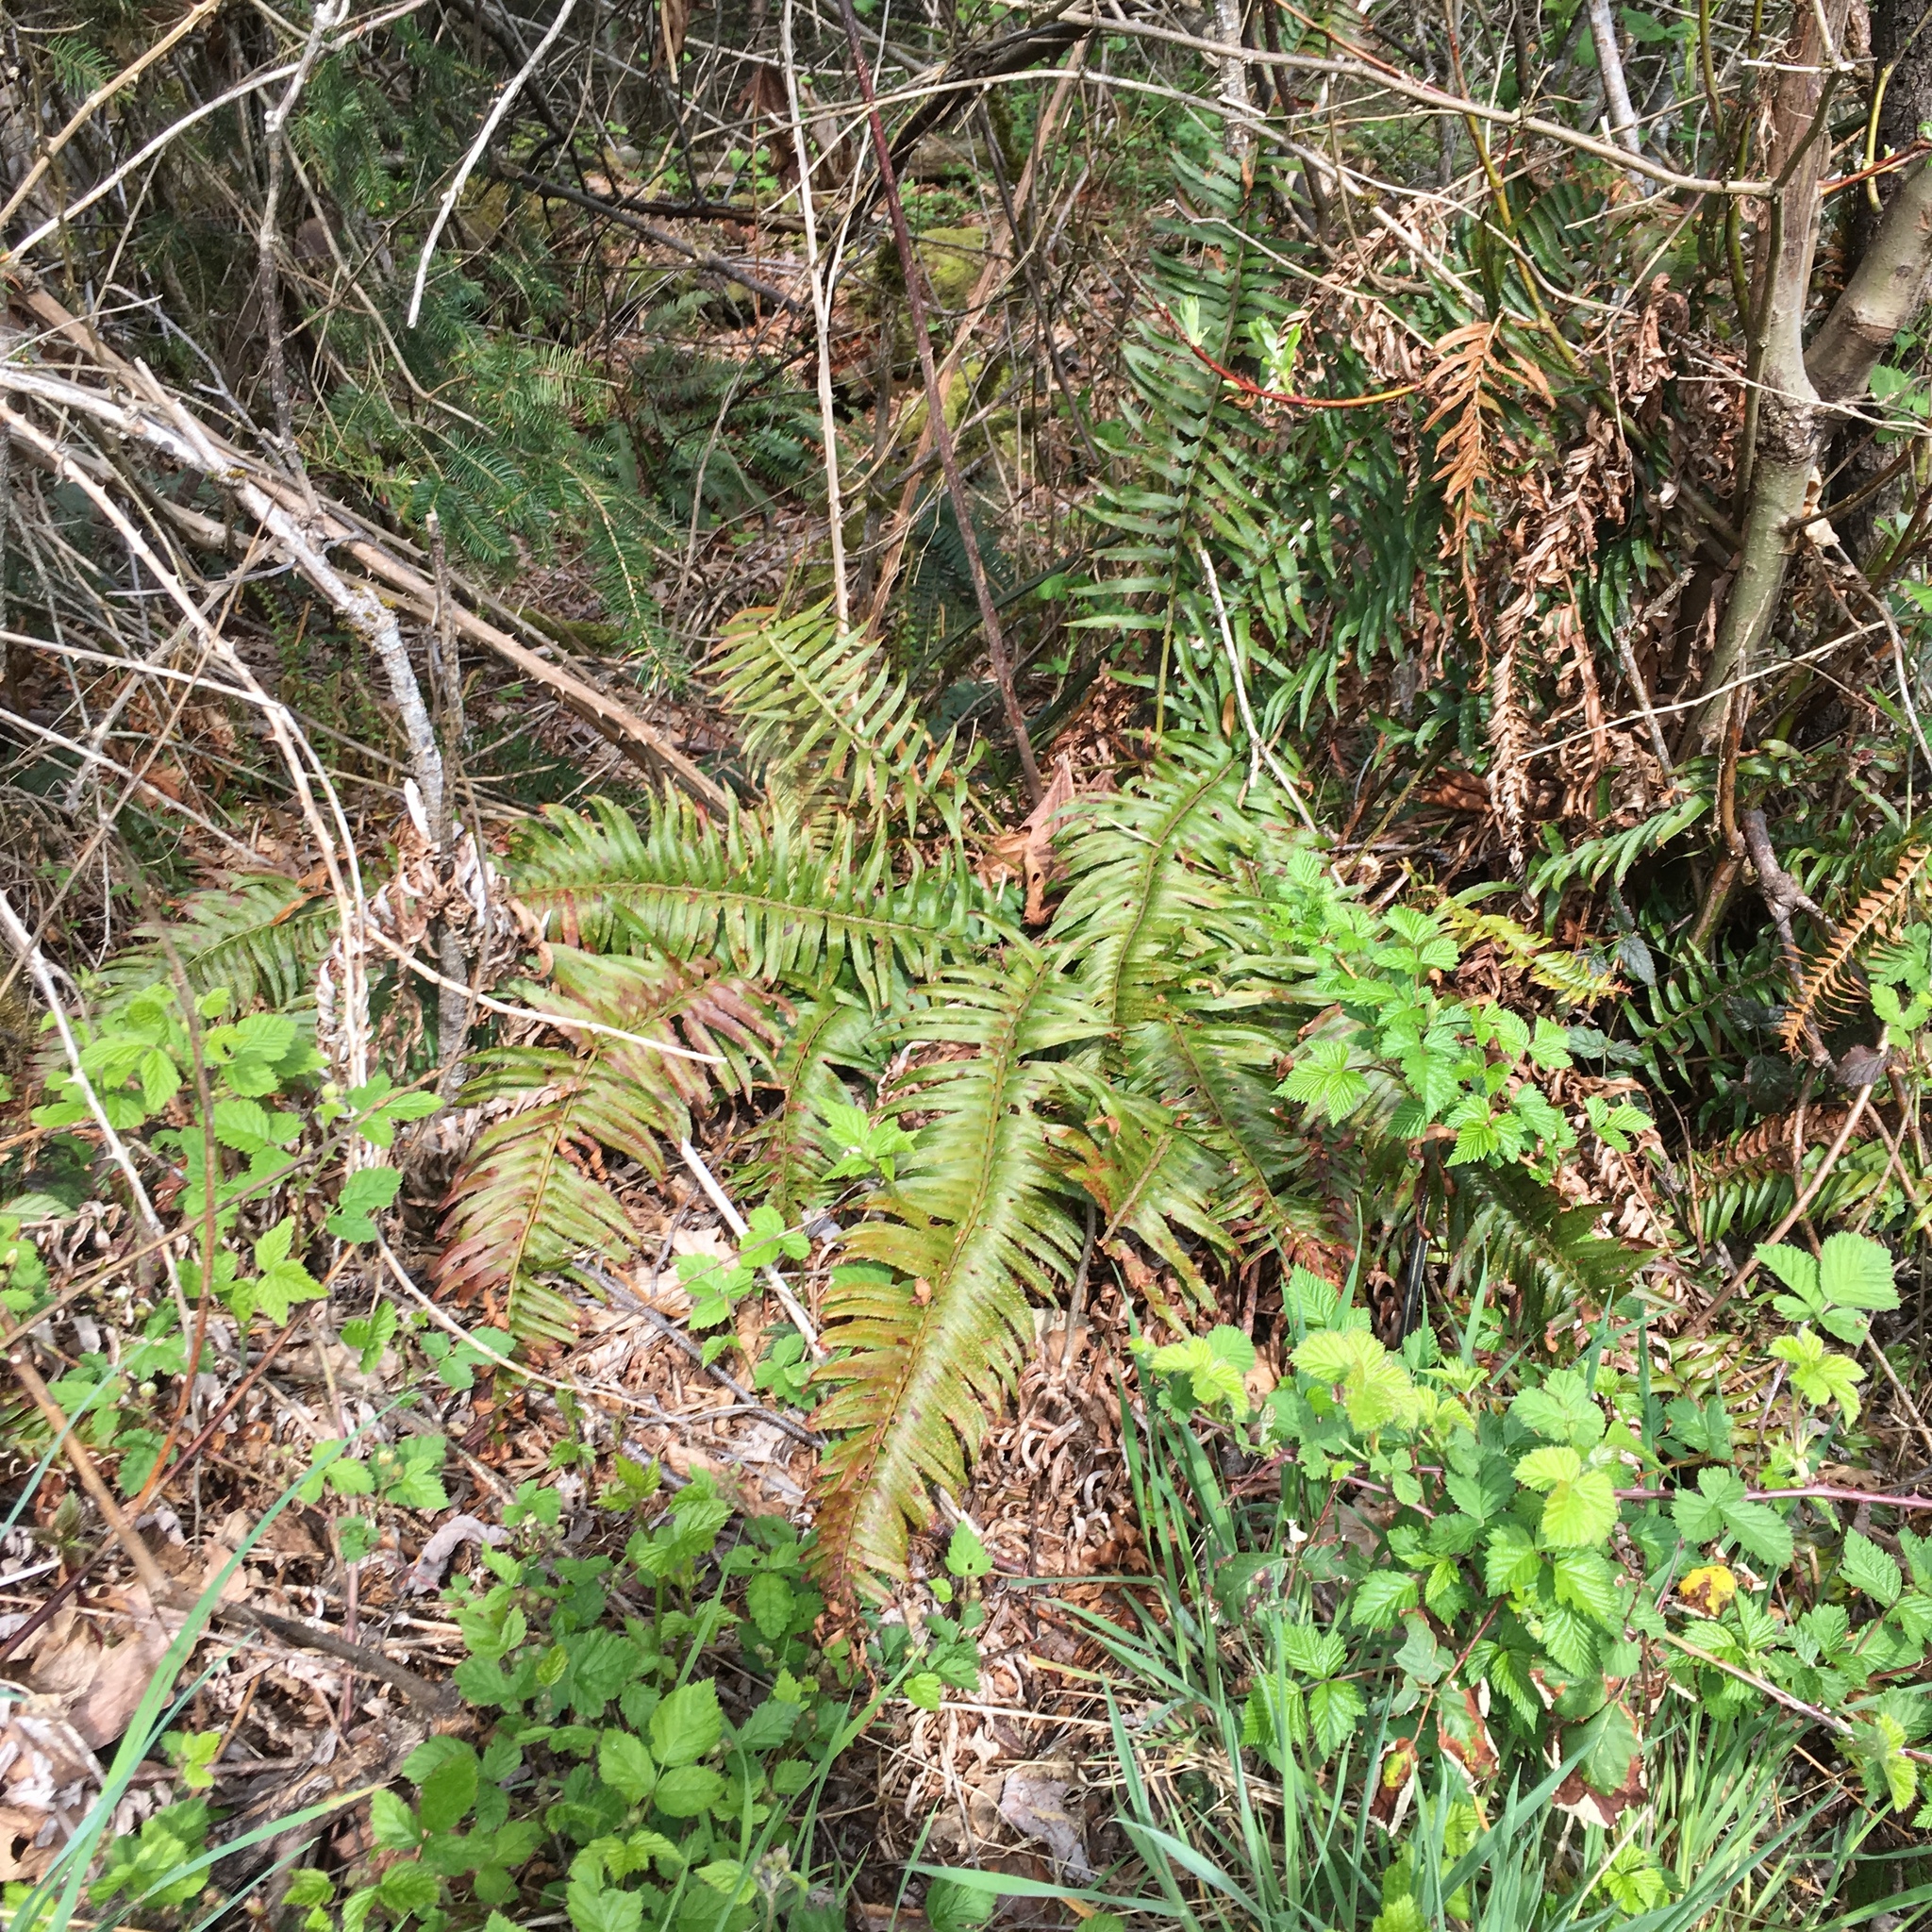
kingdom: Plantae
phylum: Tracheophyta
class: Polypodiopsida
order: Polypodiales
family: Dryopteridaceae
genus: Polystichum
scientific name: Polystichum munitum
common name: Western sword-fern
